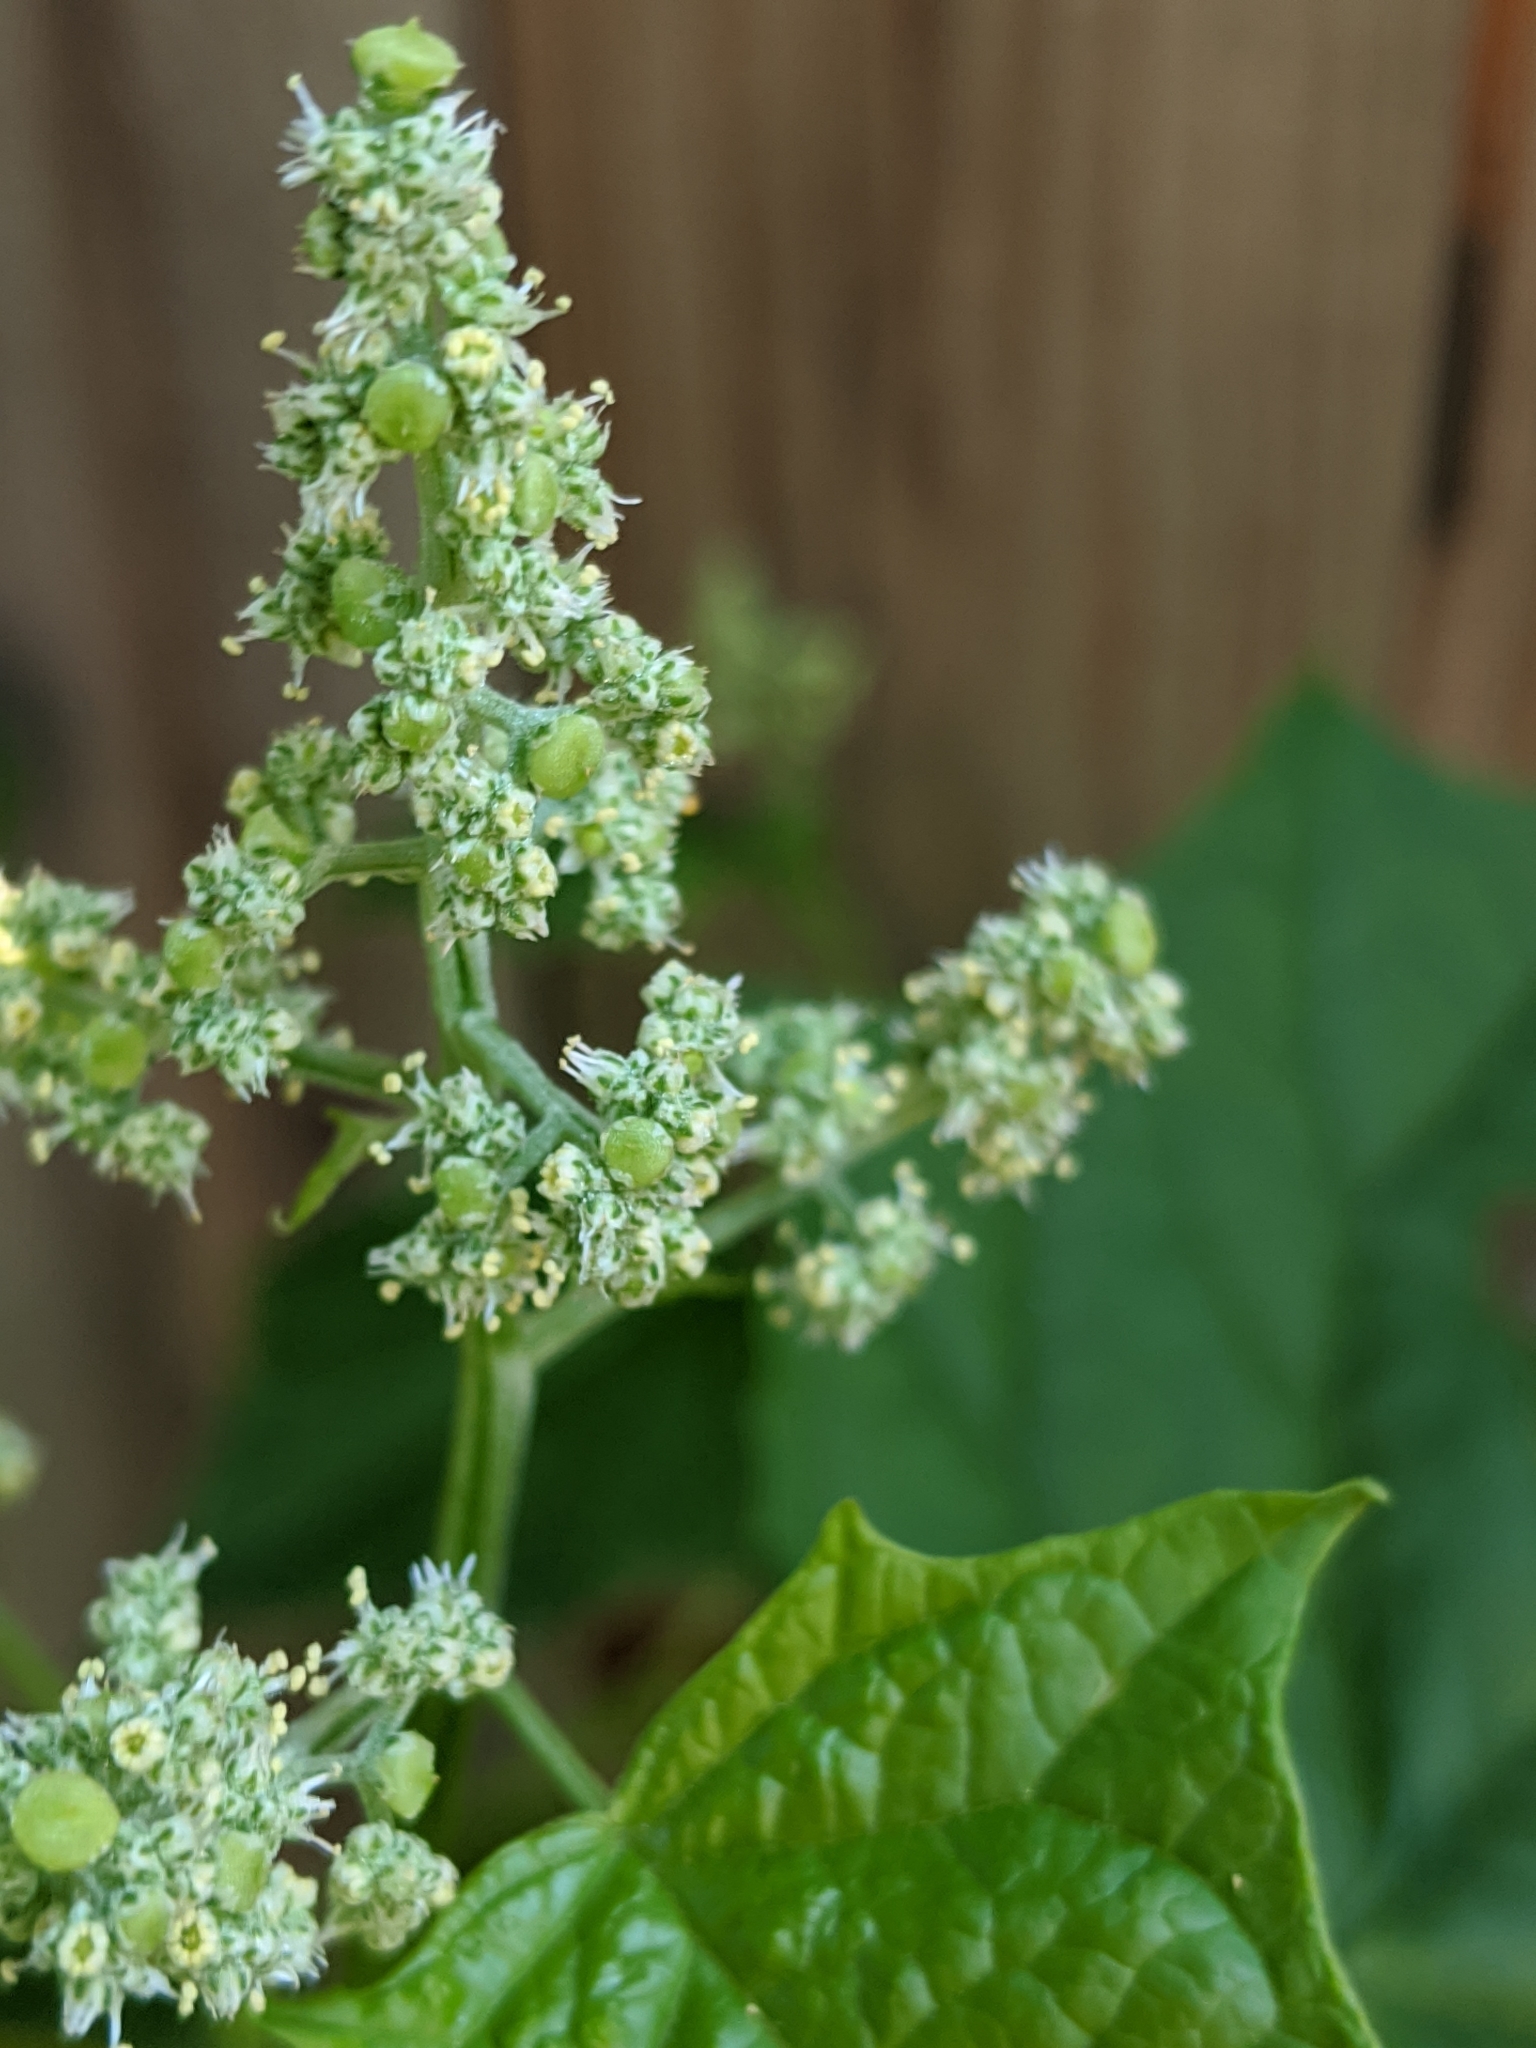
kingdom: Plantae
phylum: Tracheophyta
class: Magnoliopsida
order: Caryophyllales
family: Amaranthaceae
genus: Chenopodiastrum
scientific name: Chenopodiastrum hybridum
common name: Mapleleaf goosefoot
